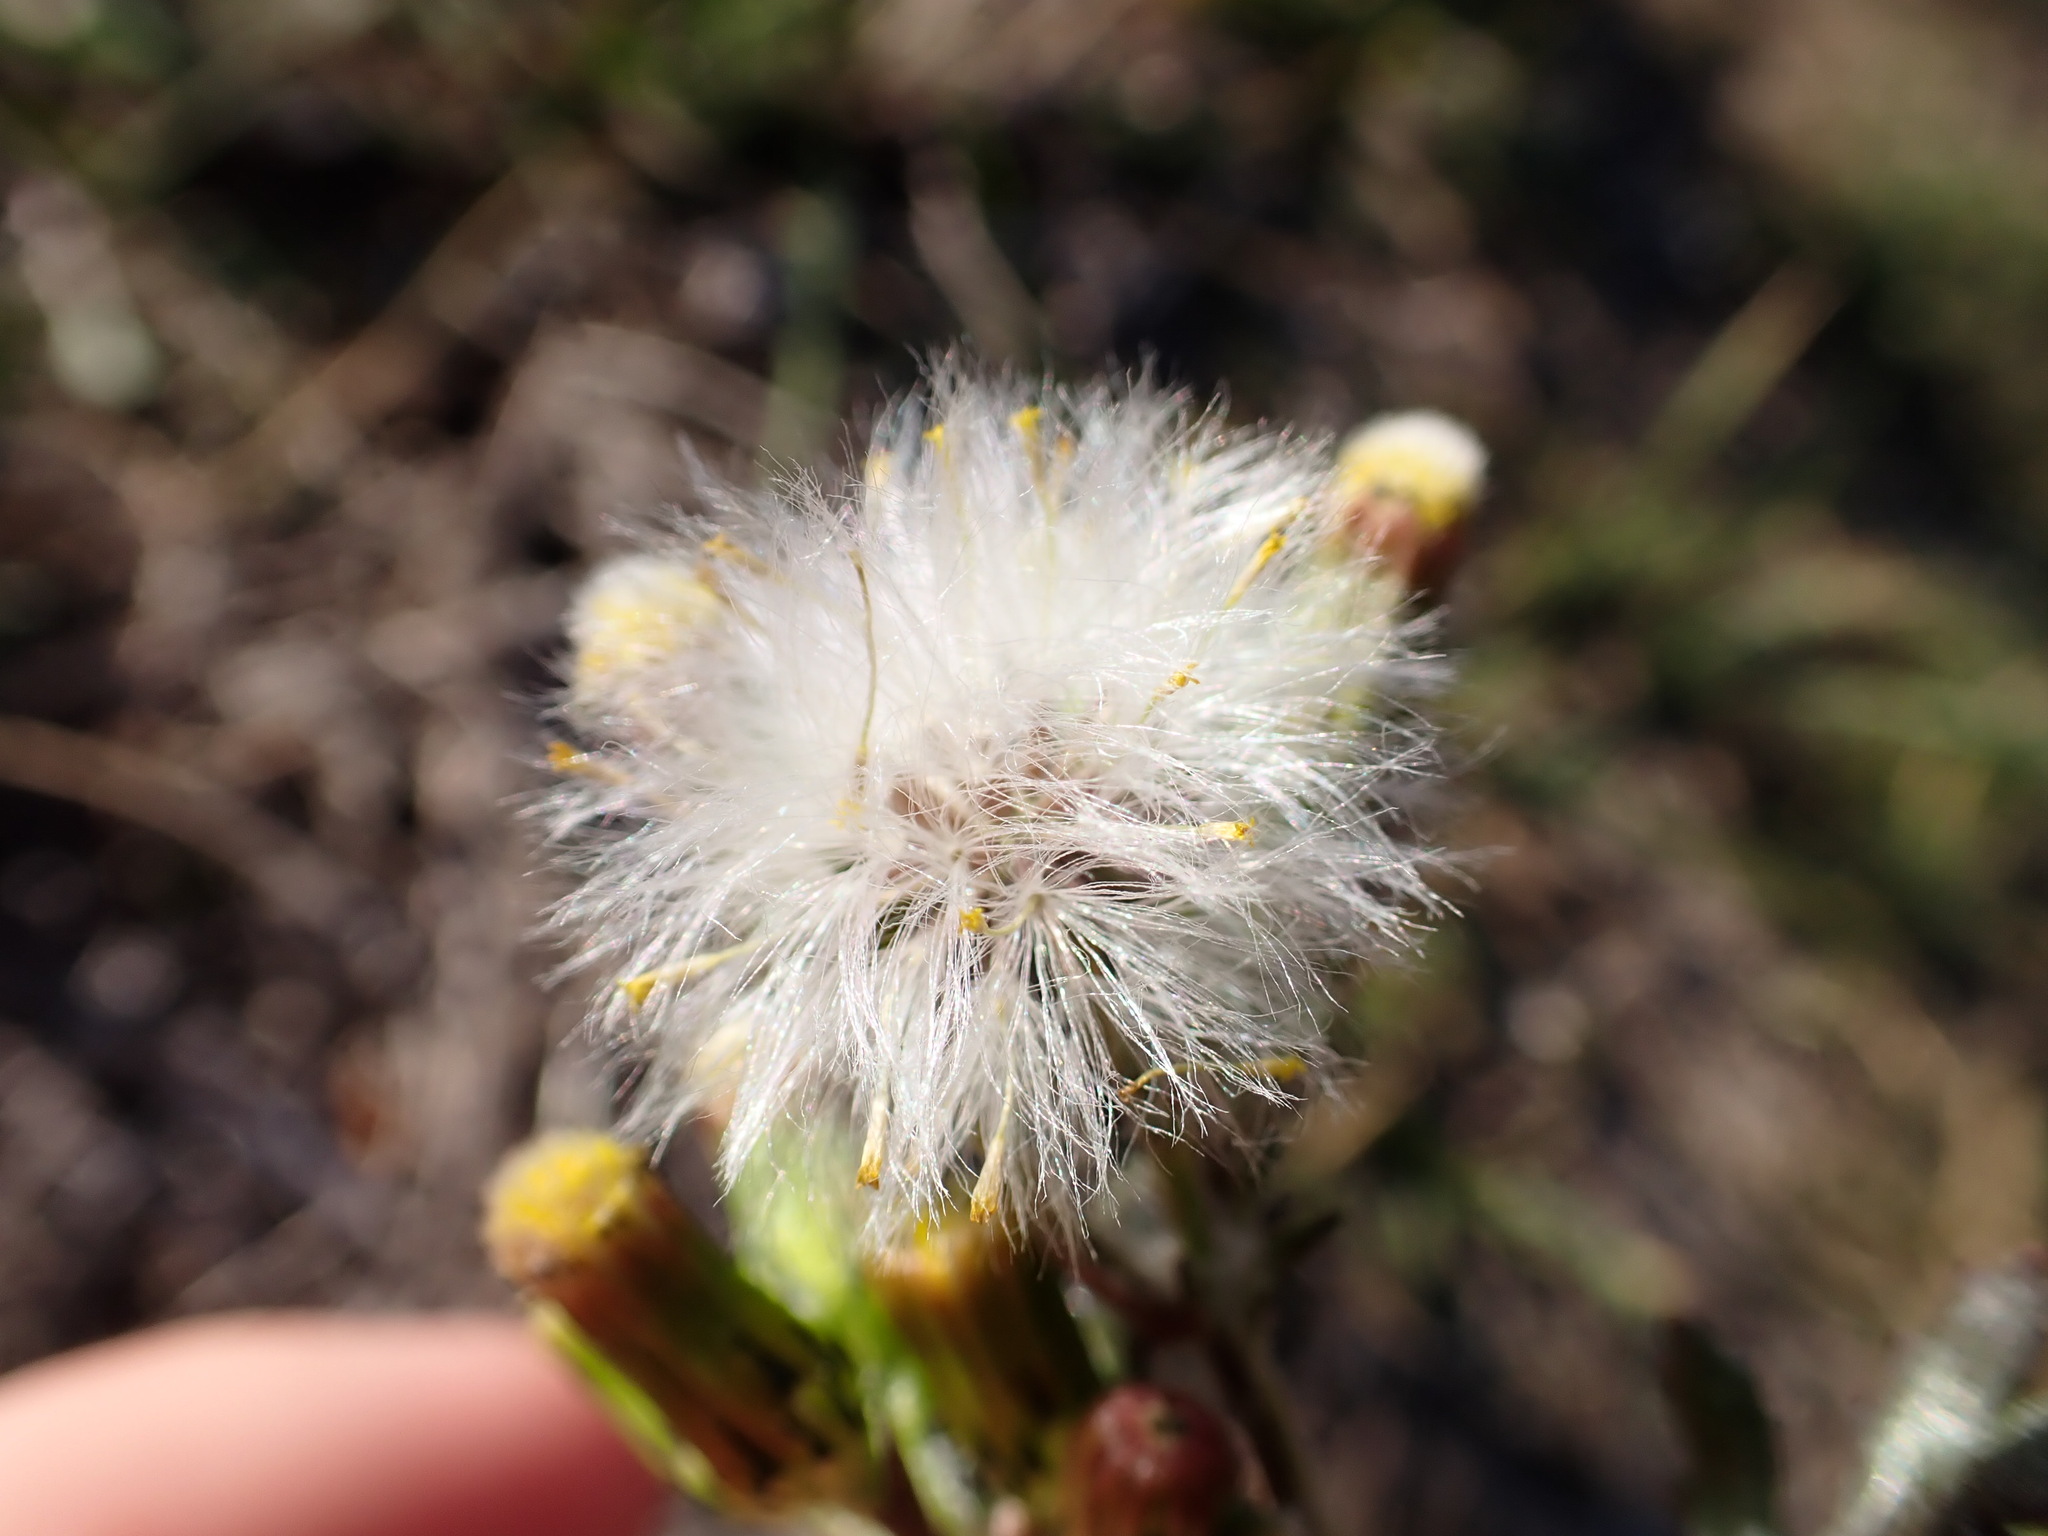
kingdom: Plantae
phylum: Tracheophyta
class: Magnoliopsida
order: Asterales
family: Asteraceae
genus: Senecio
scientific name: Senecio vulgaris
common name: Old-man-in-the-spring
